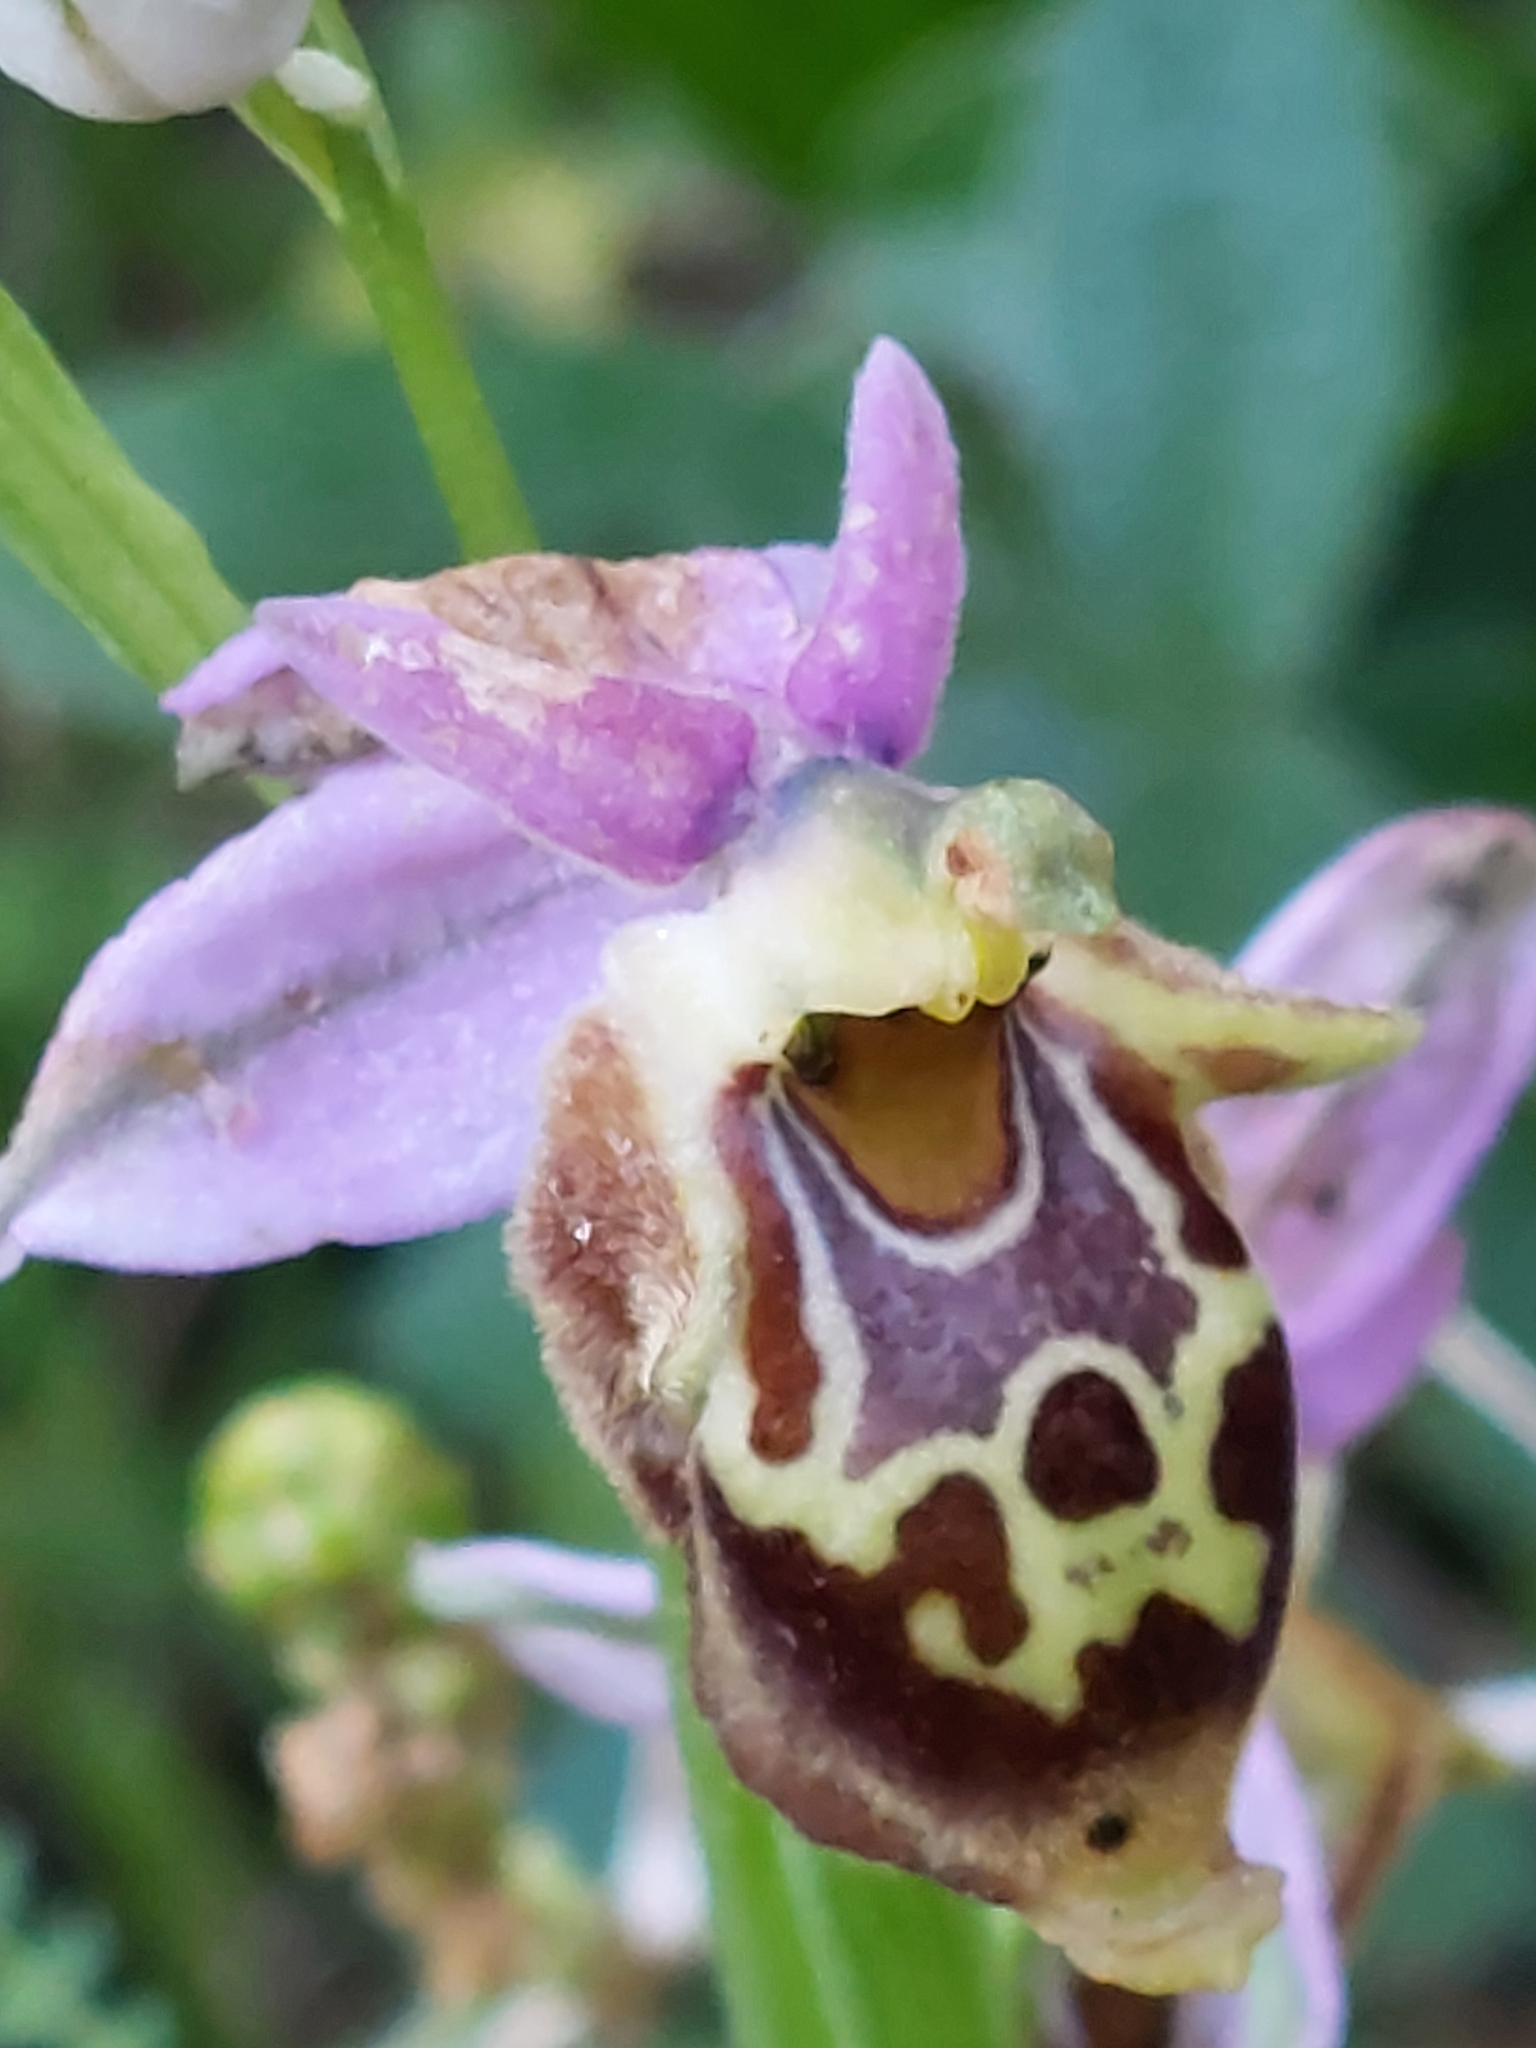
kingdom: Plantae
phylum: Tracheophyta
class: Liliopsida
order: Asparagales
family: Orchidaceae
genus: Ophrys
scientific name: Ophrys
